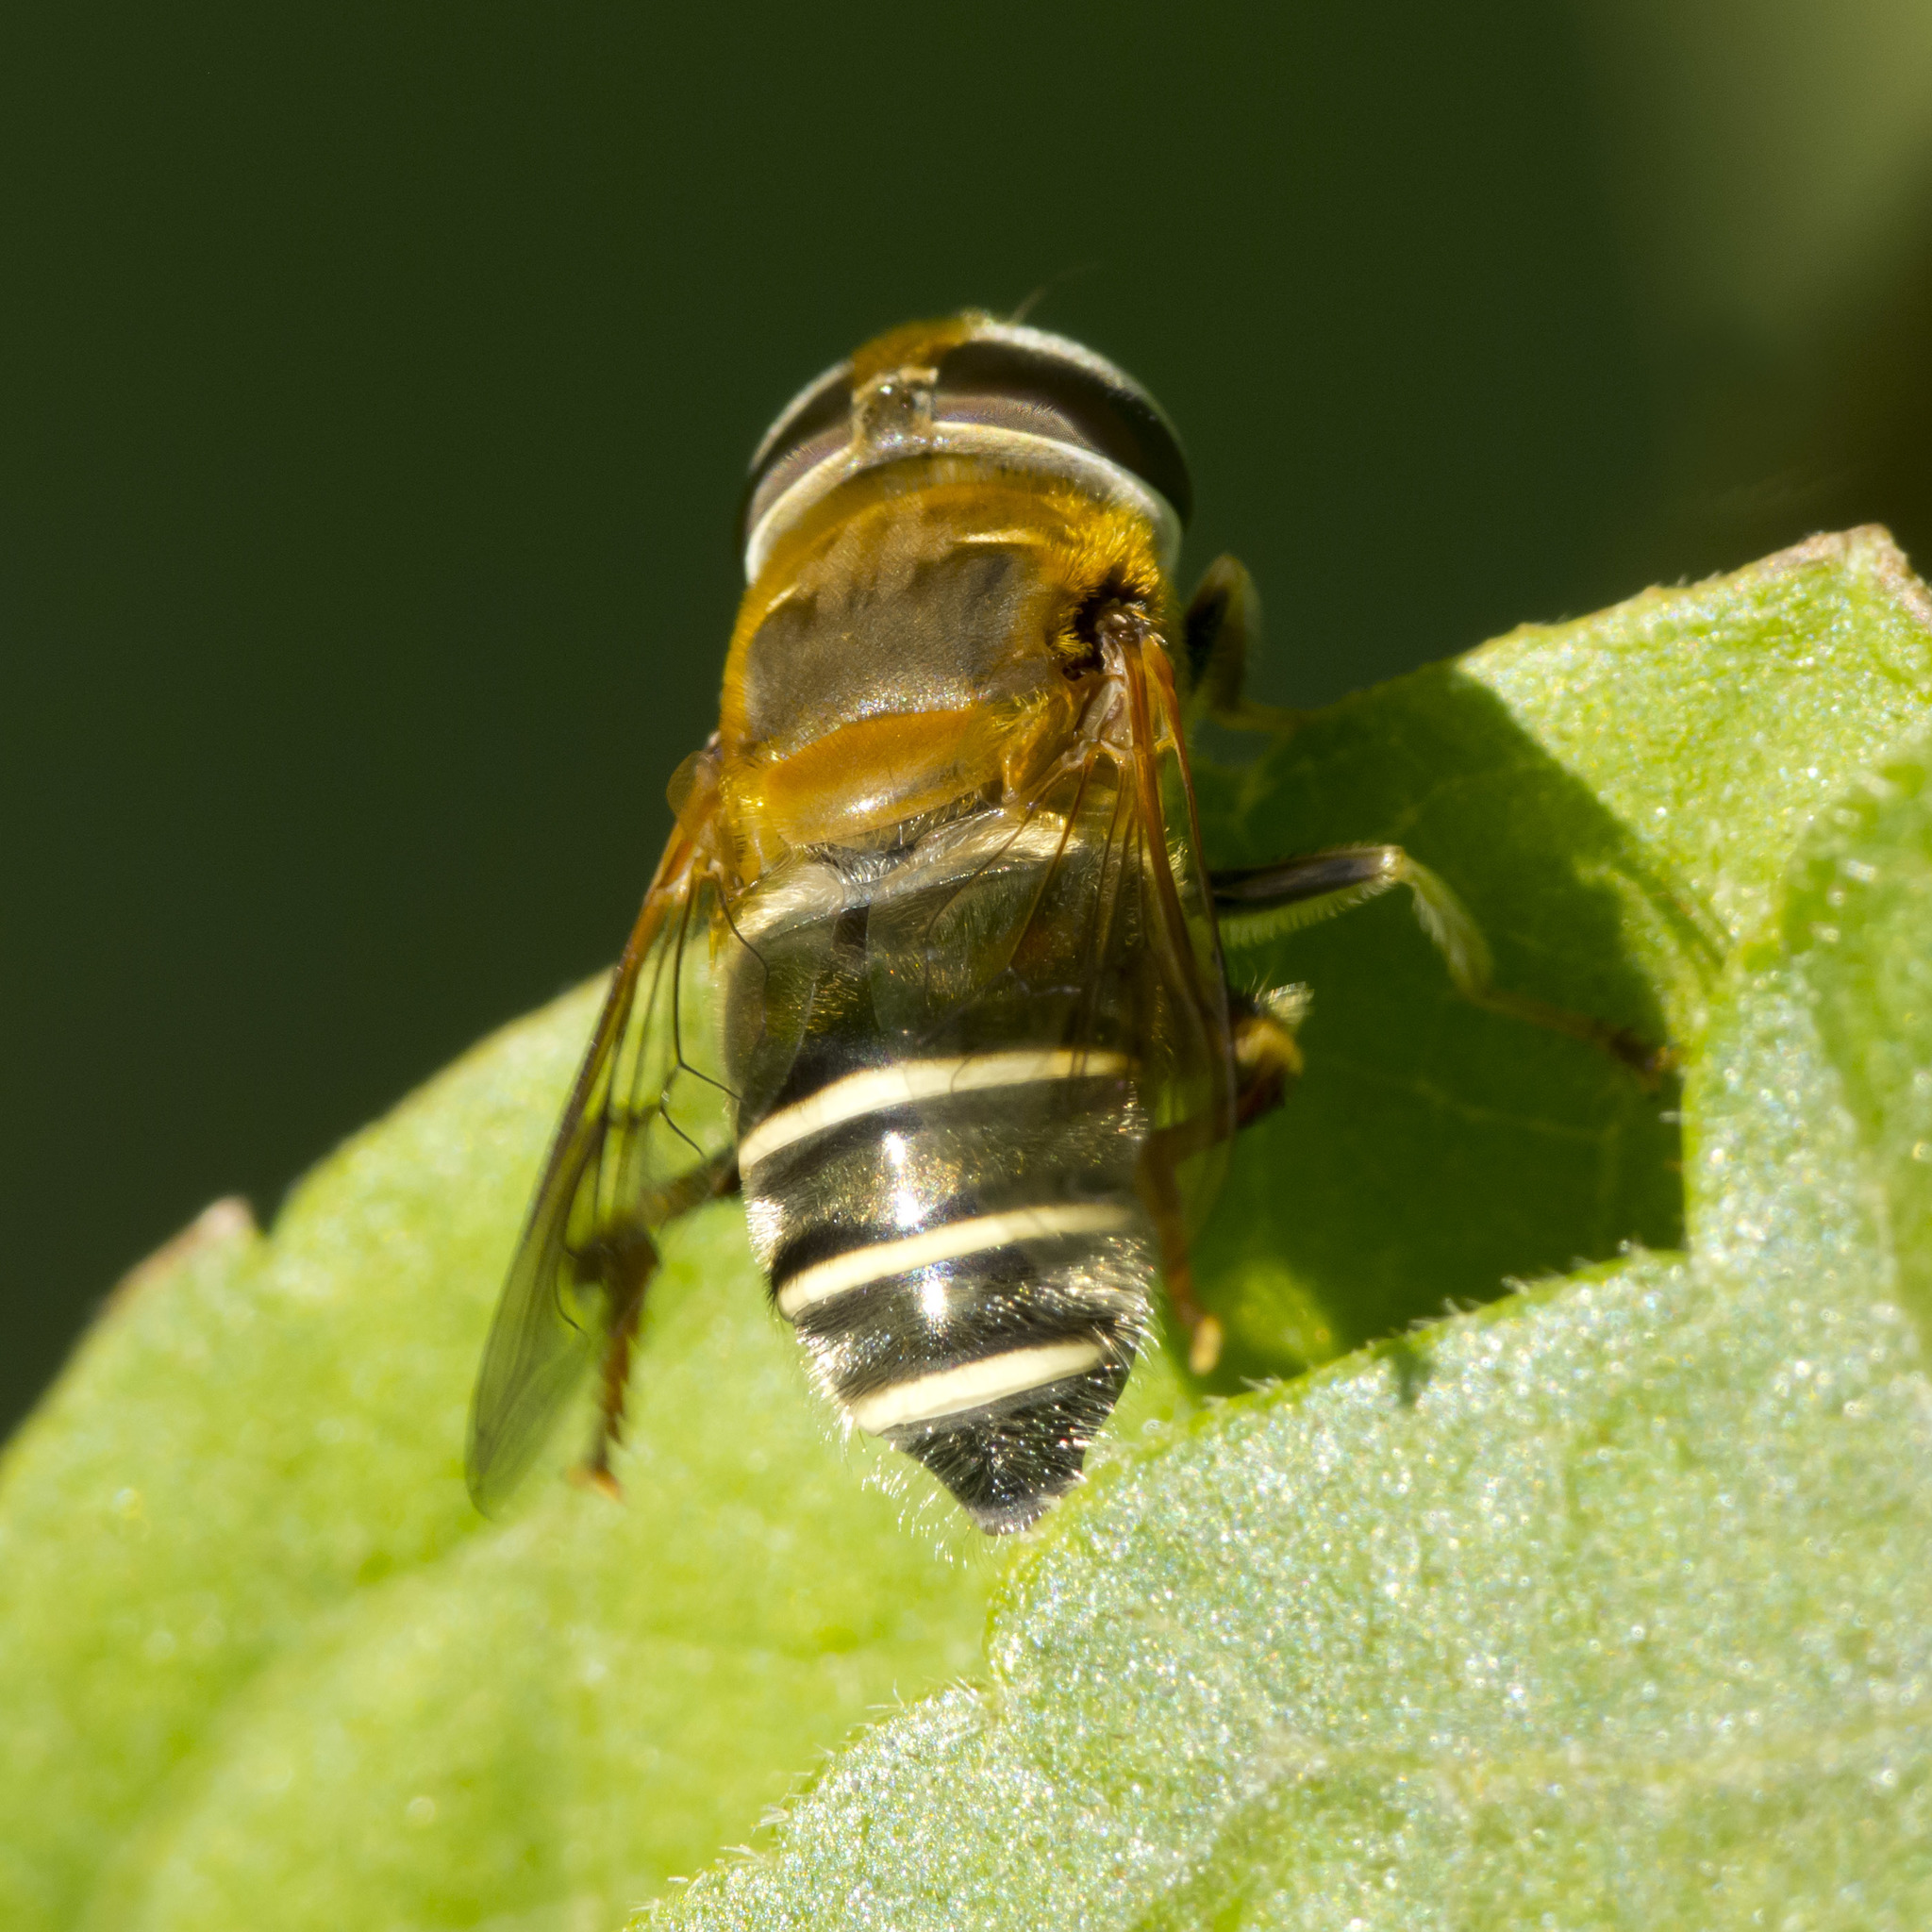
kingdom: Animalia
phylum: Arthropoda
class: Insecta
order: Diptera
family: Syrphidae
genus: Palpada
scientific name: Palpada mexicana
